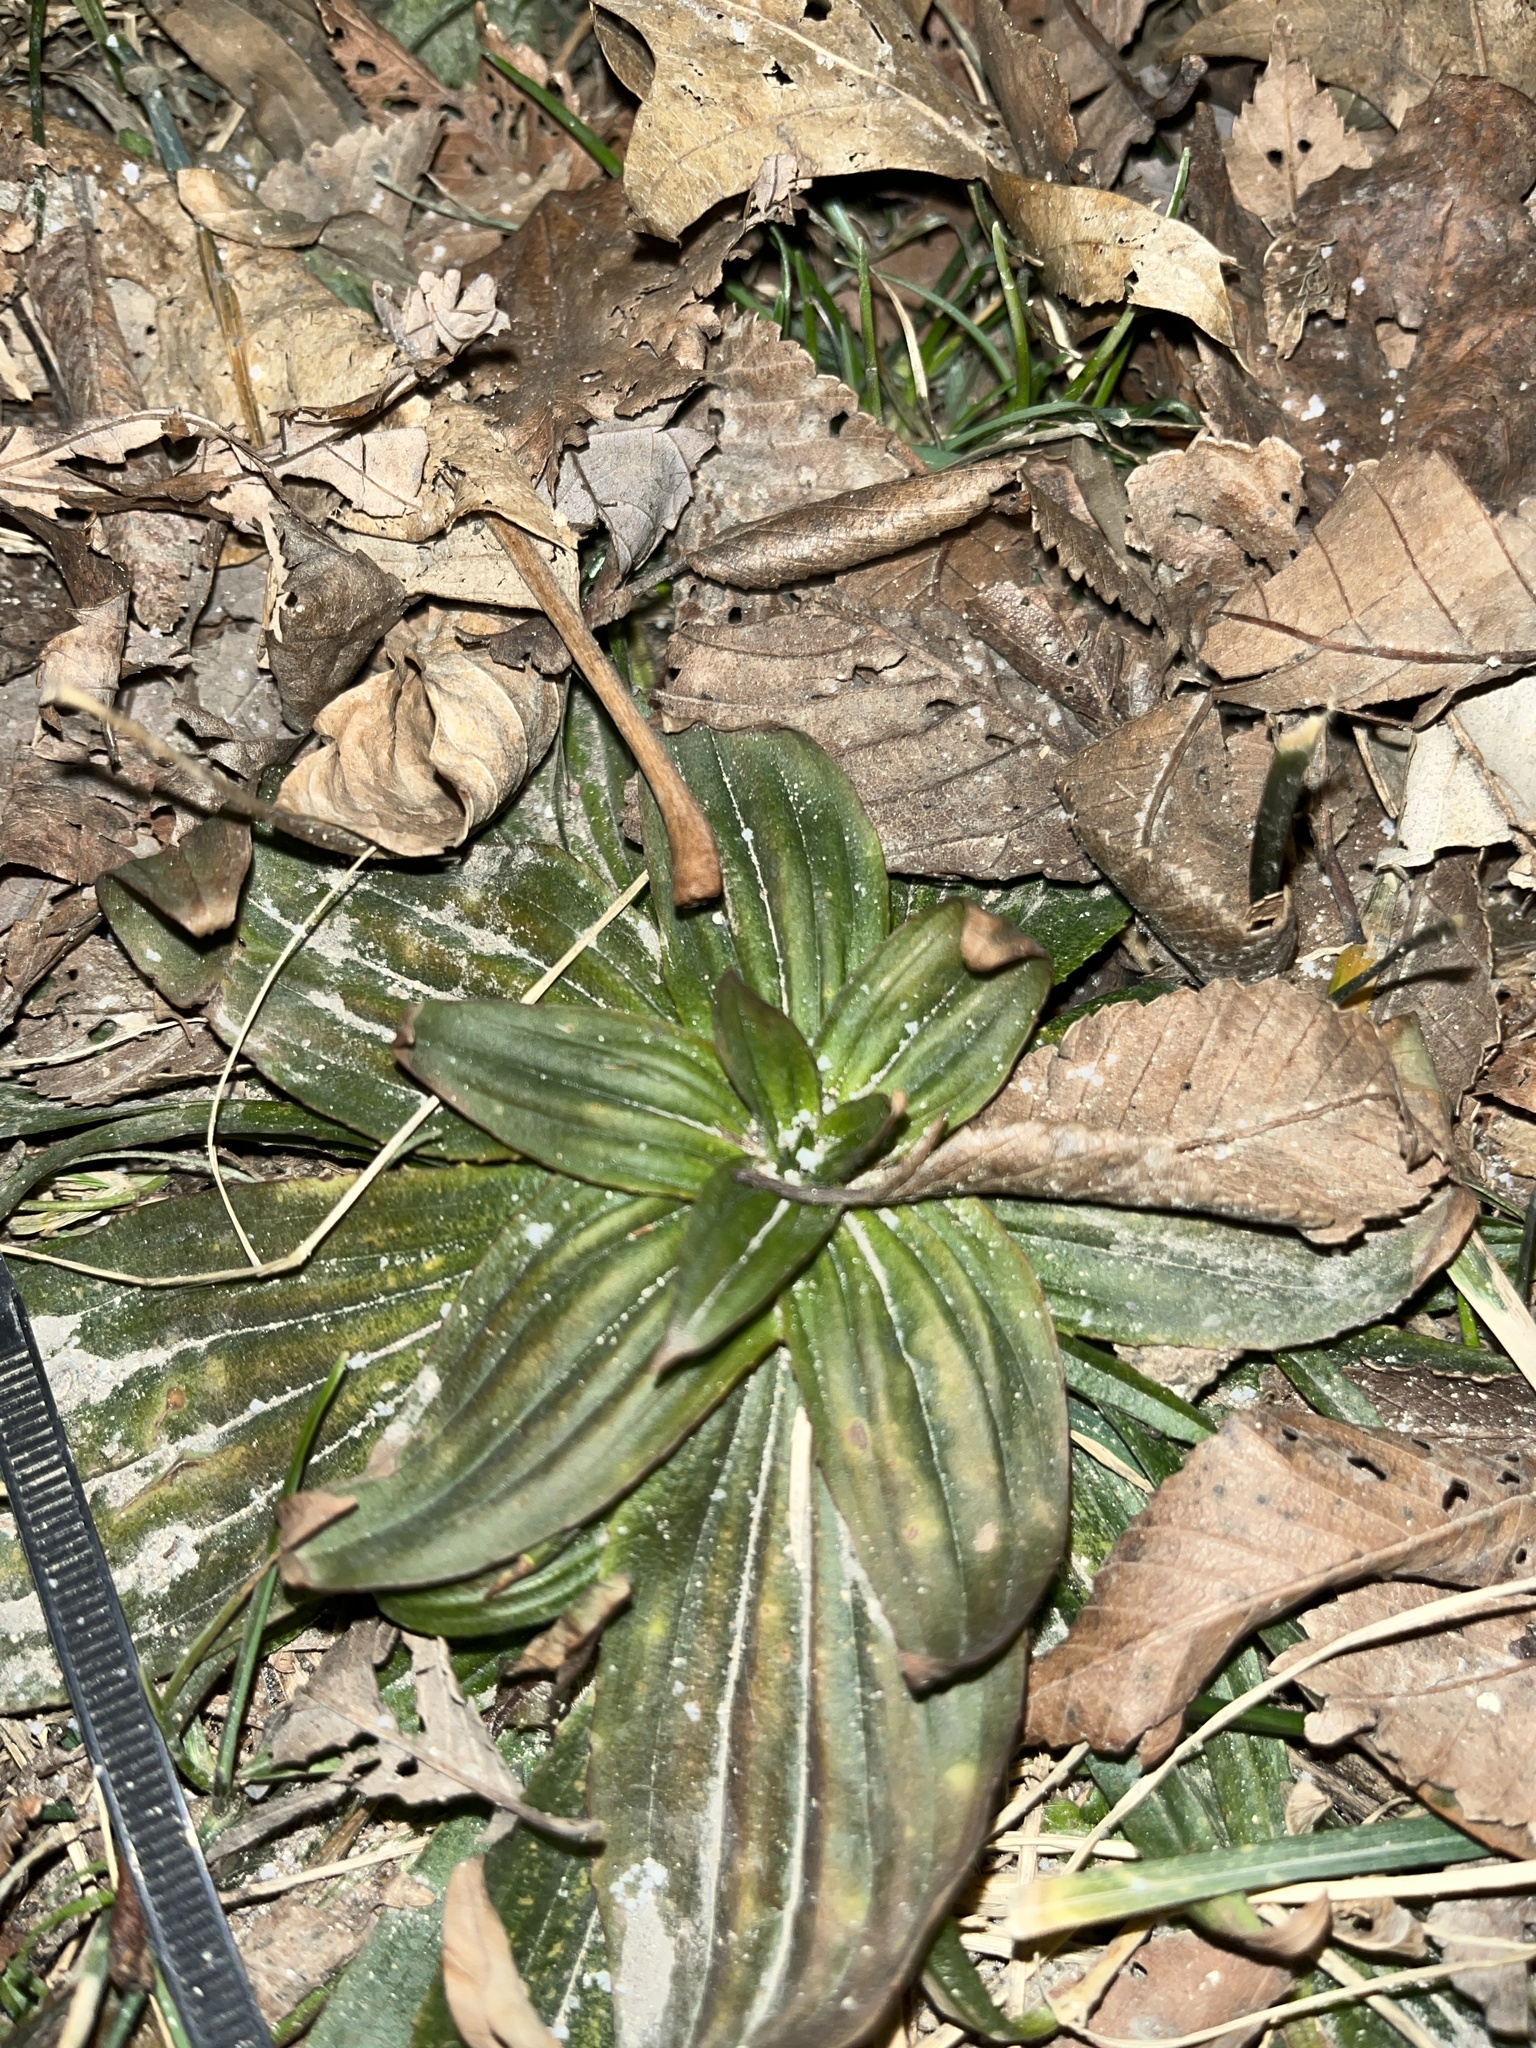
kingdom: Plantae
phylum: Tracheophyta
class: Magnoliopsida
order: Lamiales
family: Plantaginaceae
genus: Plantago
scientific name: Plantago lanceolata
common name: Ribwort plantain
